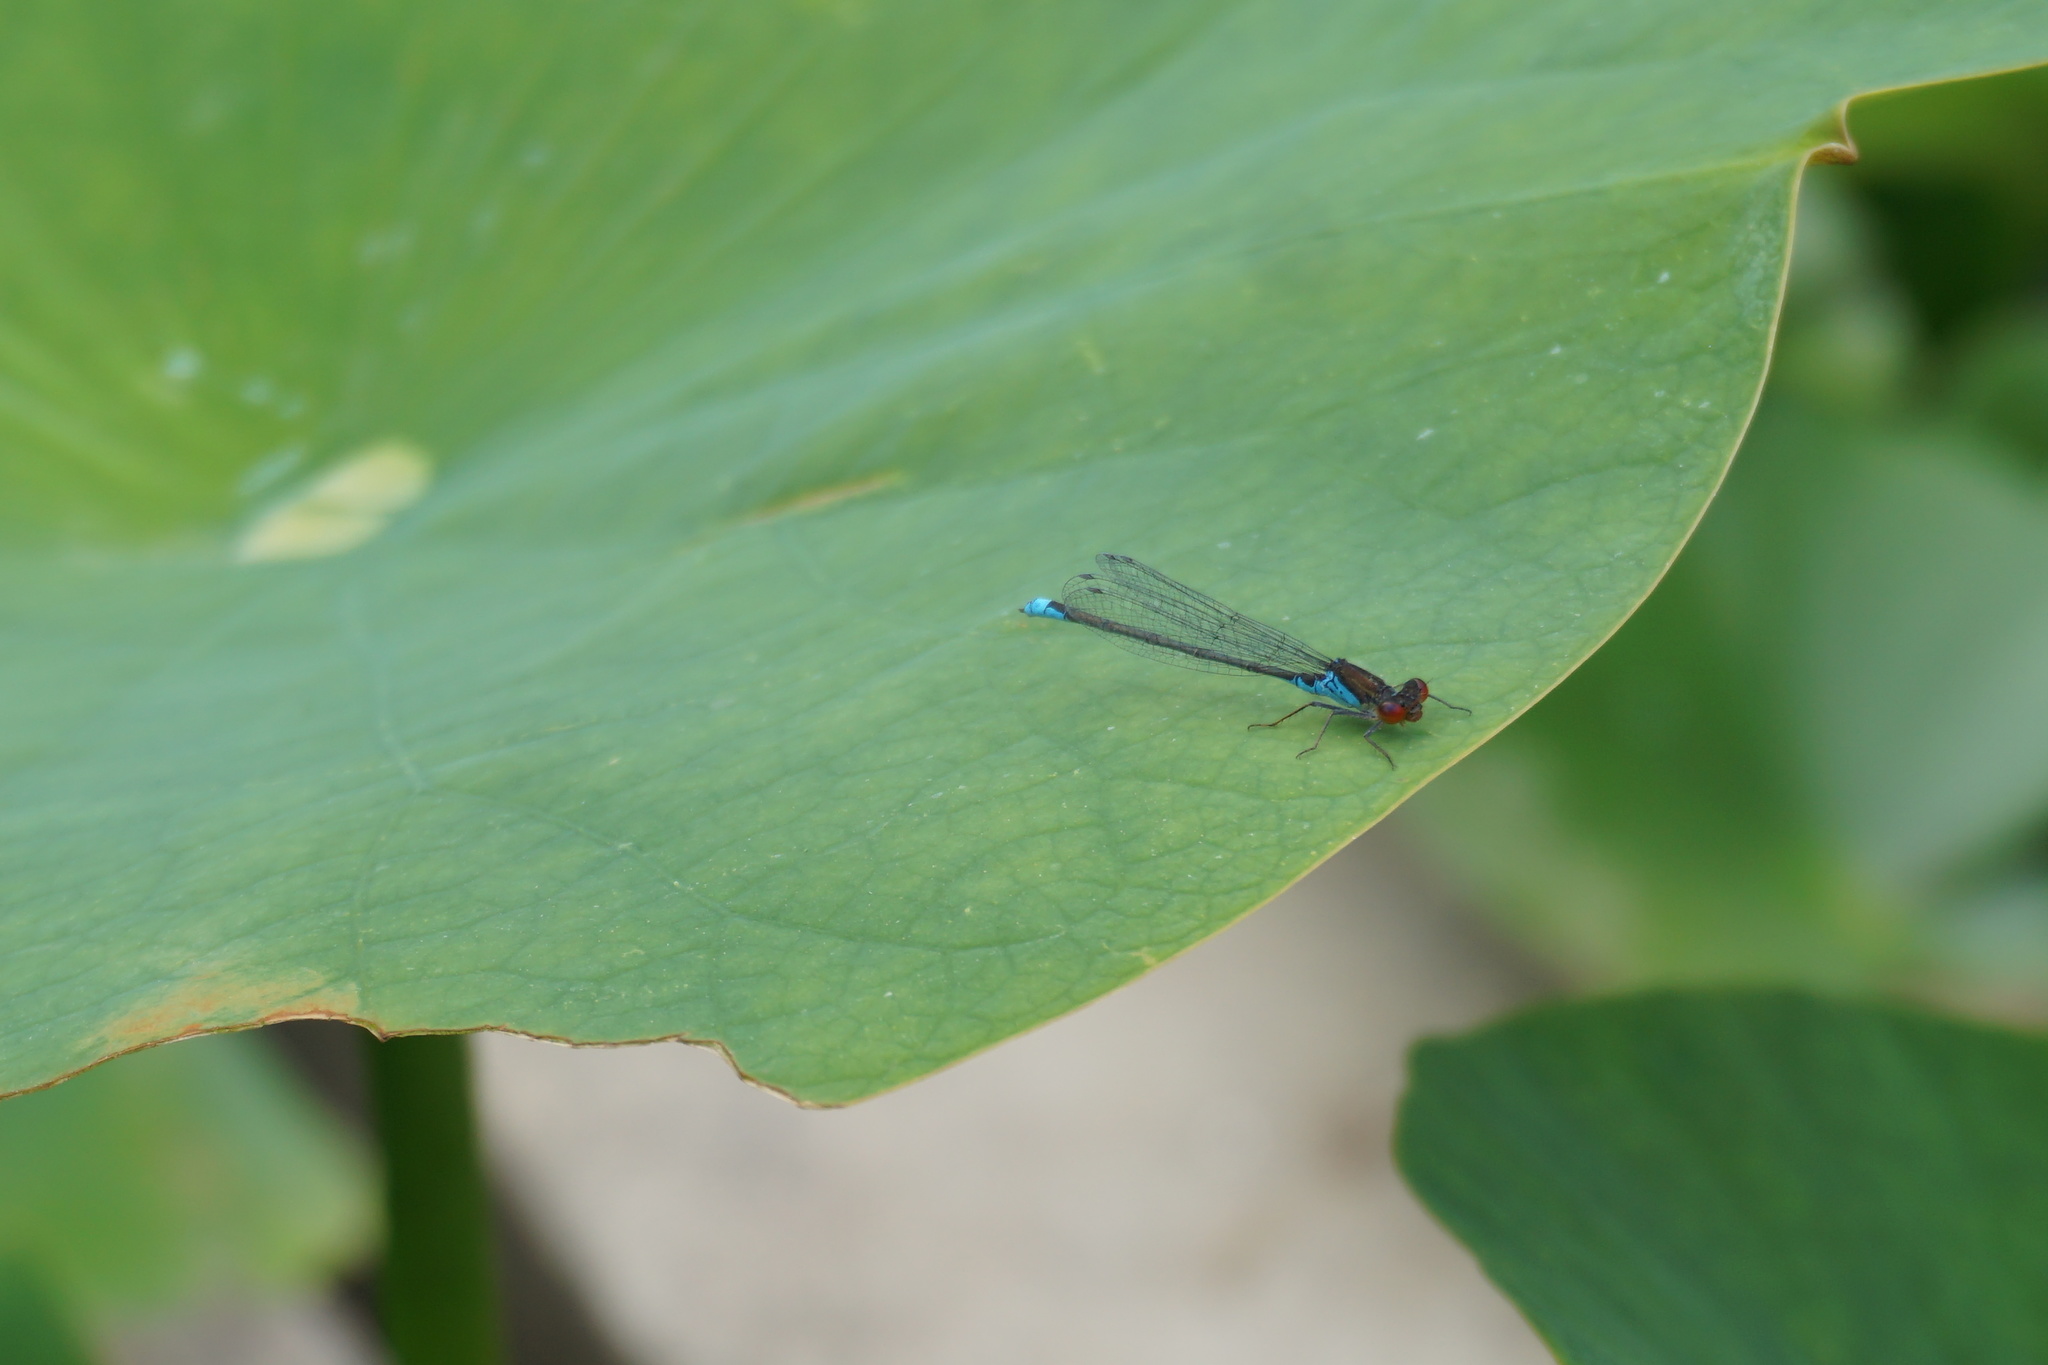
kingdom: Animalia
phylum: Arthropoda
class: Insecta
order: Odonata
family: Coenagrionidae
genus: Erythromma
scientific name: Erythromma viridulum
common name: Small red-eyed damselfly
